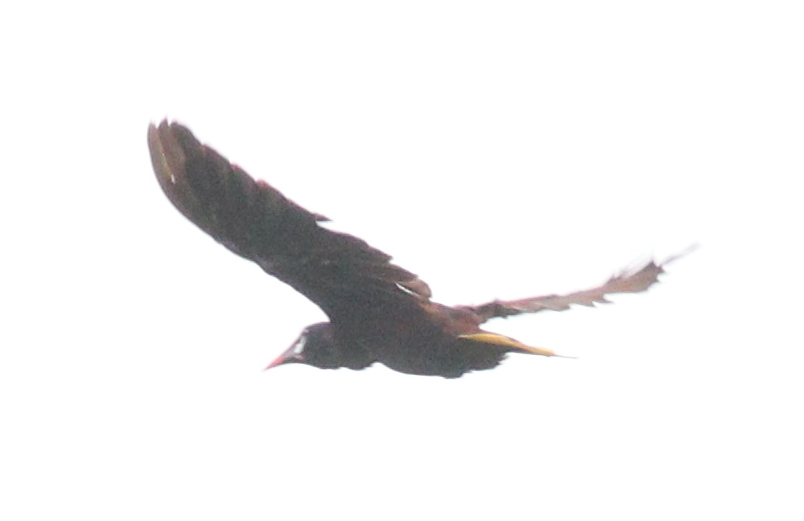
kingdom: Animalia
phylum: Chordata
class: Aves
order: Passeriformes
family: Icteridae
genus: Psarocolius
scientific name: Psarocolius montezuma
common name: Montezuma oropendola
